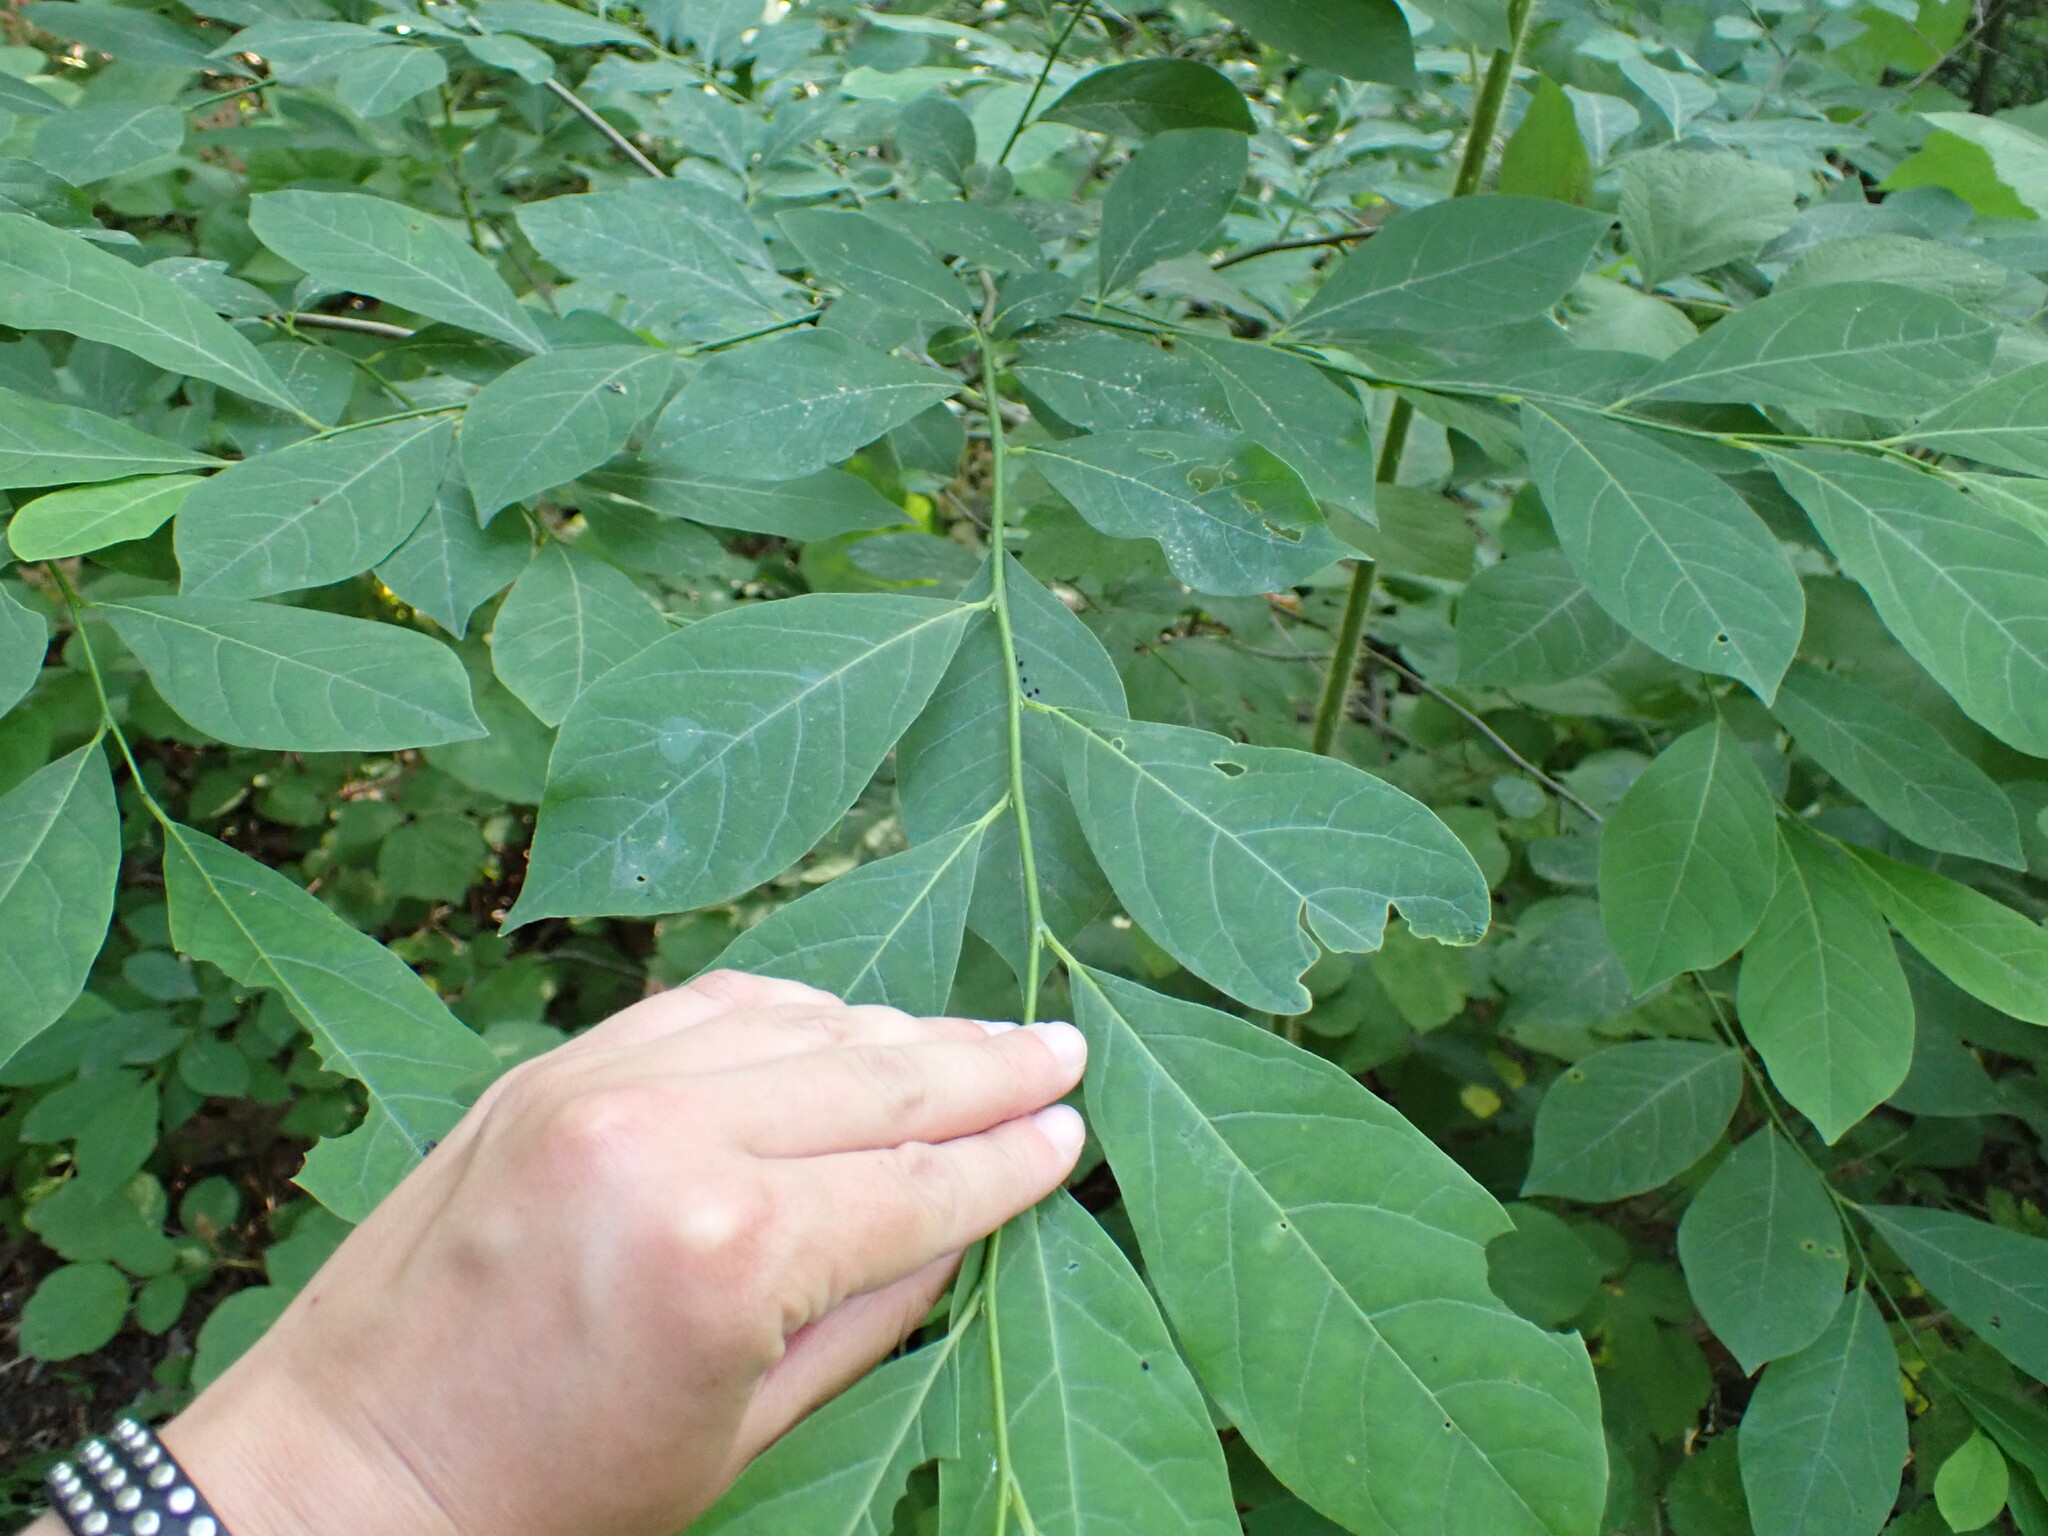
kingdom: Plantae
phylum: Tracheophyta
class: Magnoliopsida
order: Laurales
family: Lauraceae
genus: Lindera
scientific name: Lindera benzoin
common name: Spicebush
